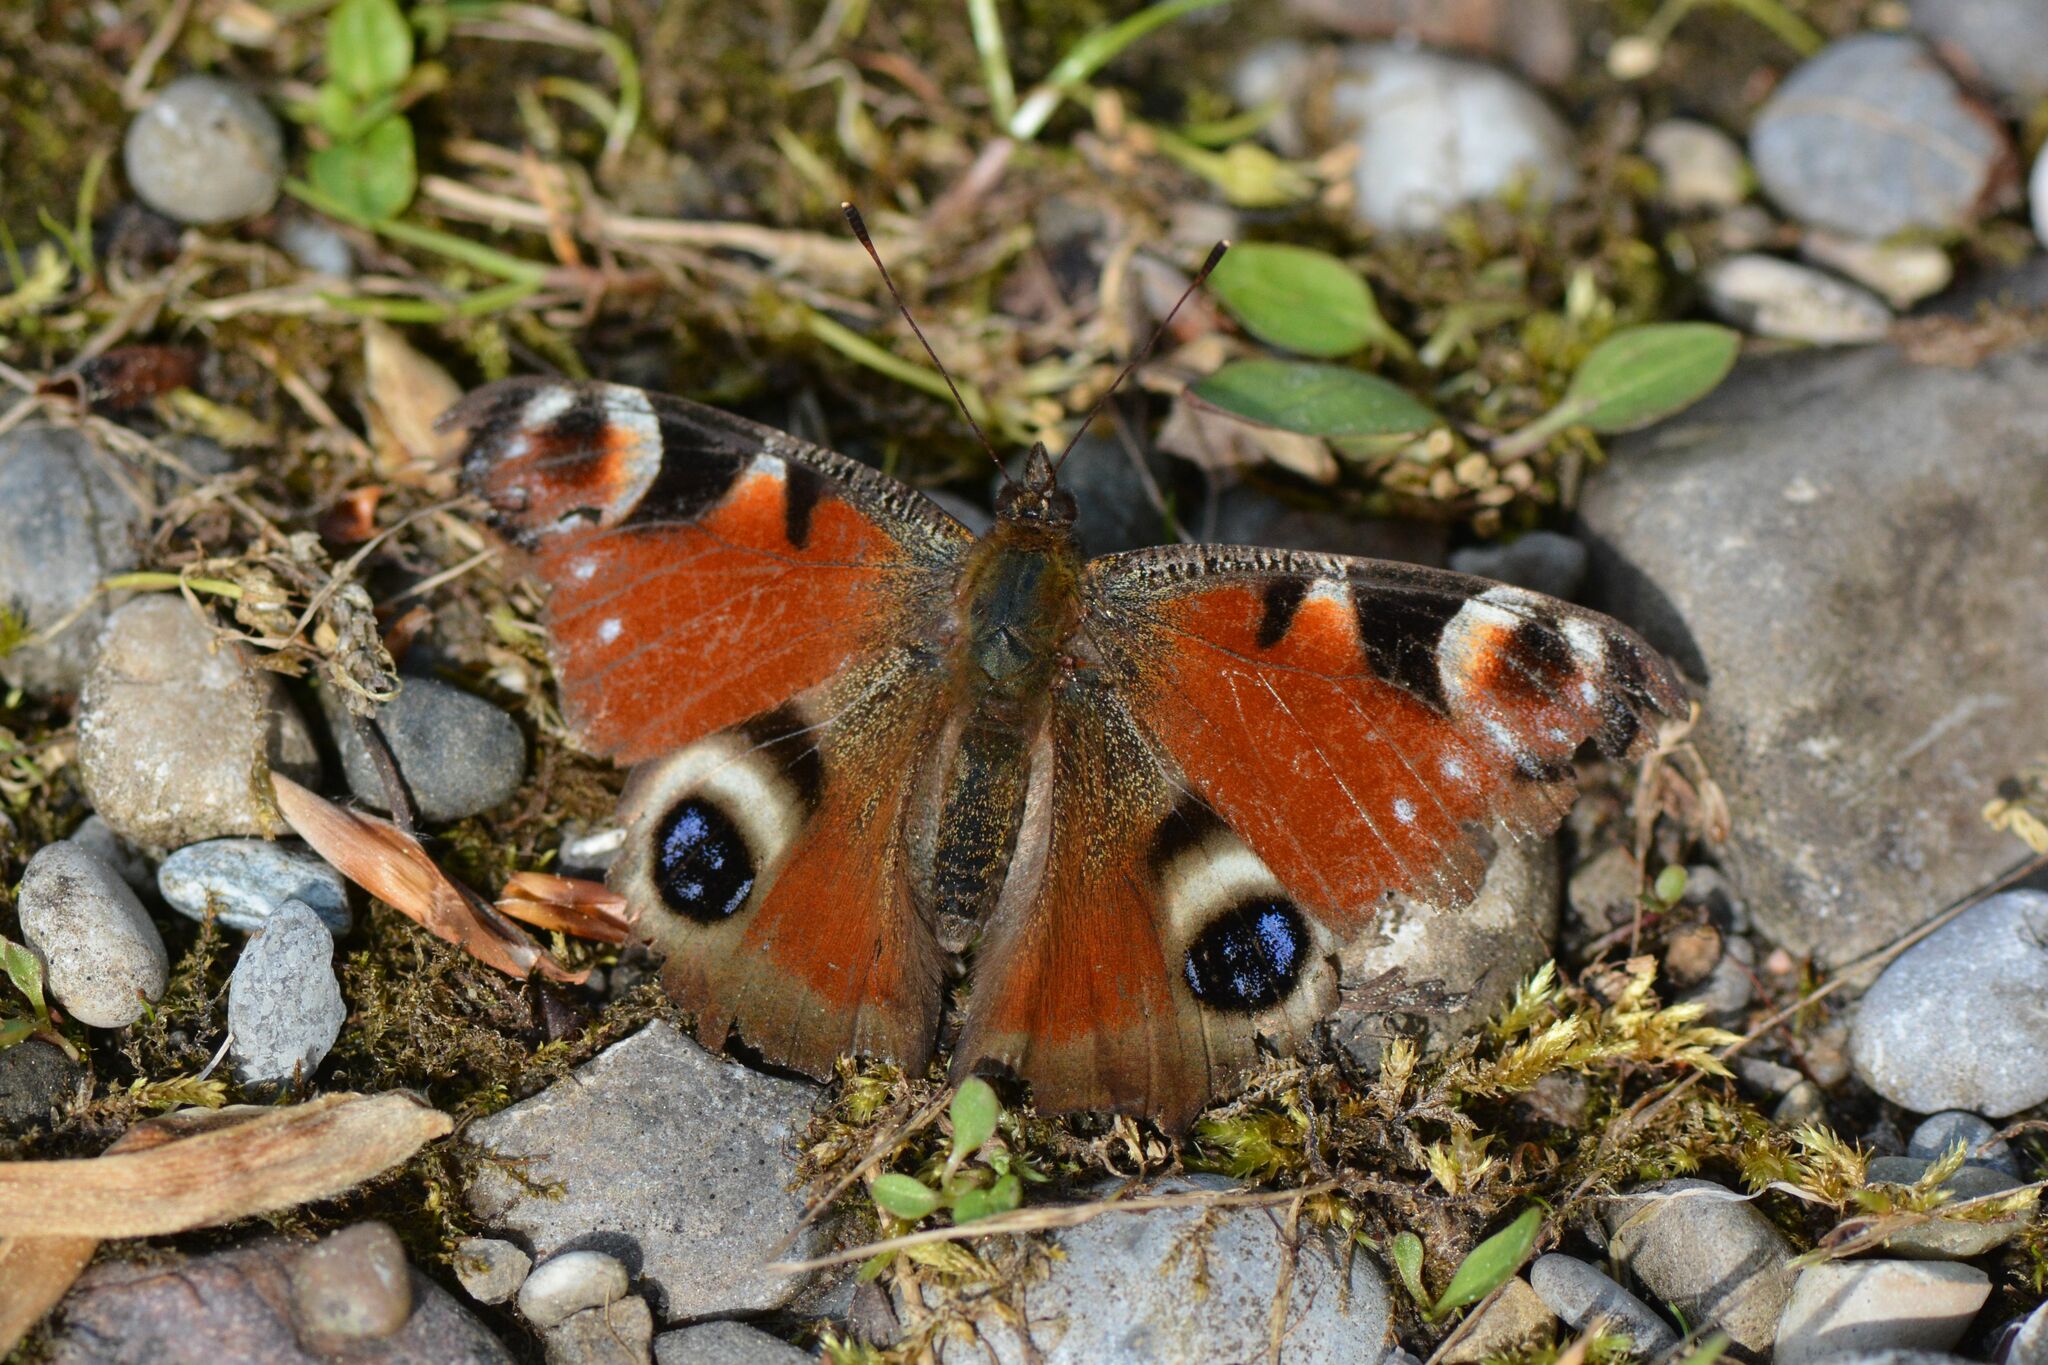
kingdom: Animalia
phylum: Arthropoda
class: Insecta
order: Lepidoptera
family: Nymphalidae
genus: Aglais
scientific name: Aglais io
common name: Peacock
